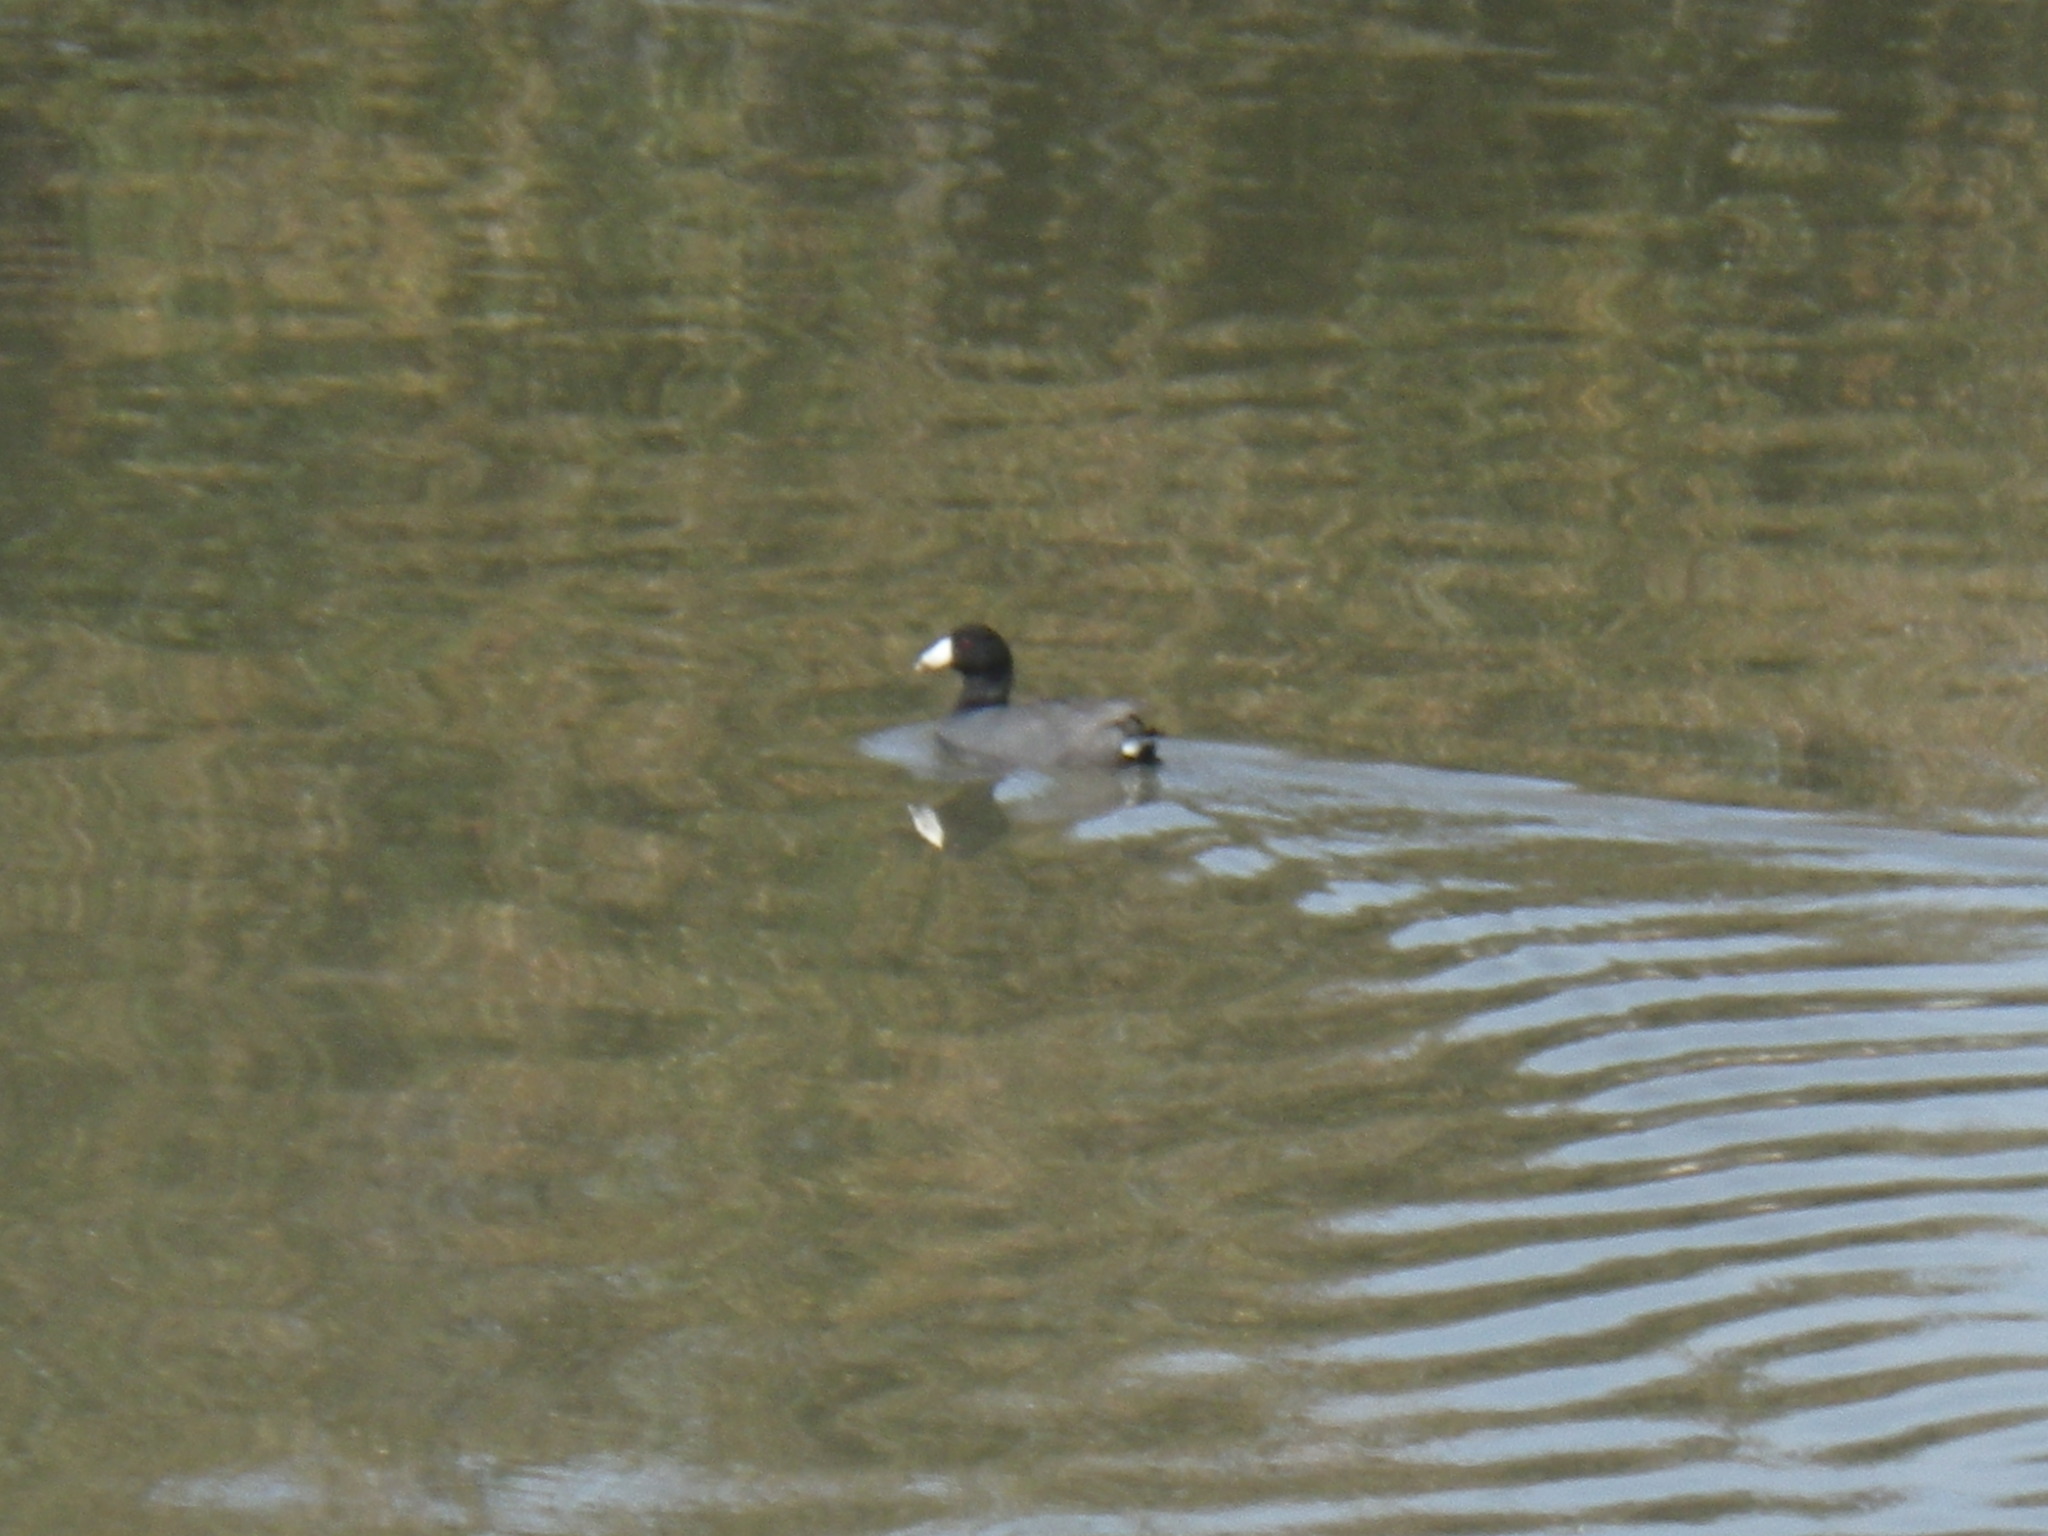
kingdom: Animalia
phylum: Chordata
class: Aves
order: Gruiformes
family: Rallidae
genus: Fulica
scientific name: Fulica americana
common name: American coot
